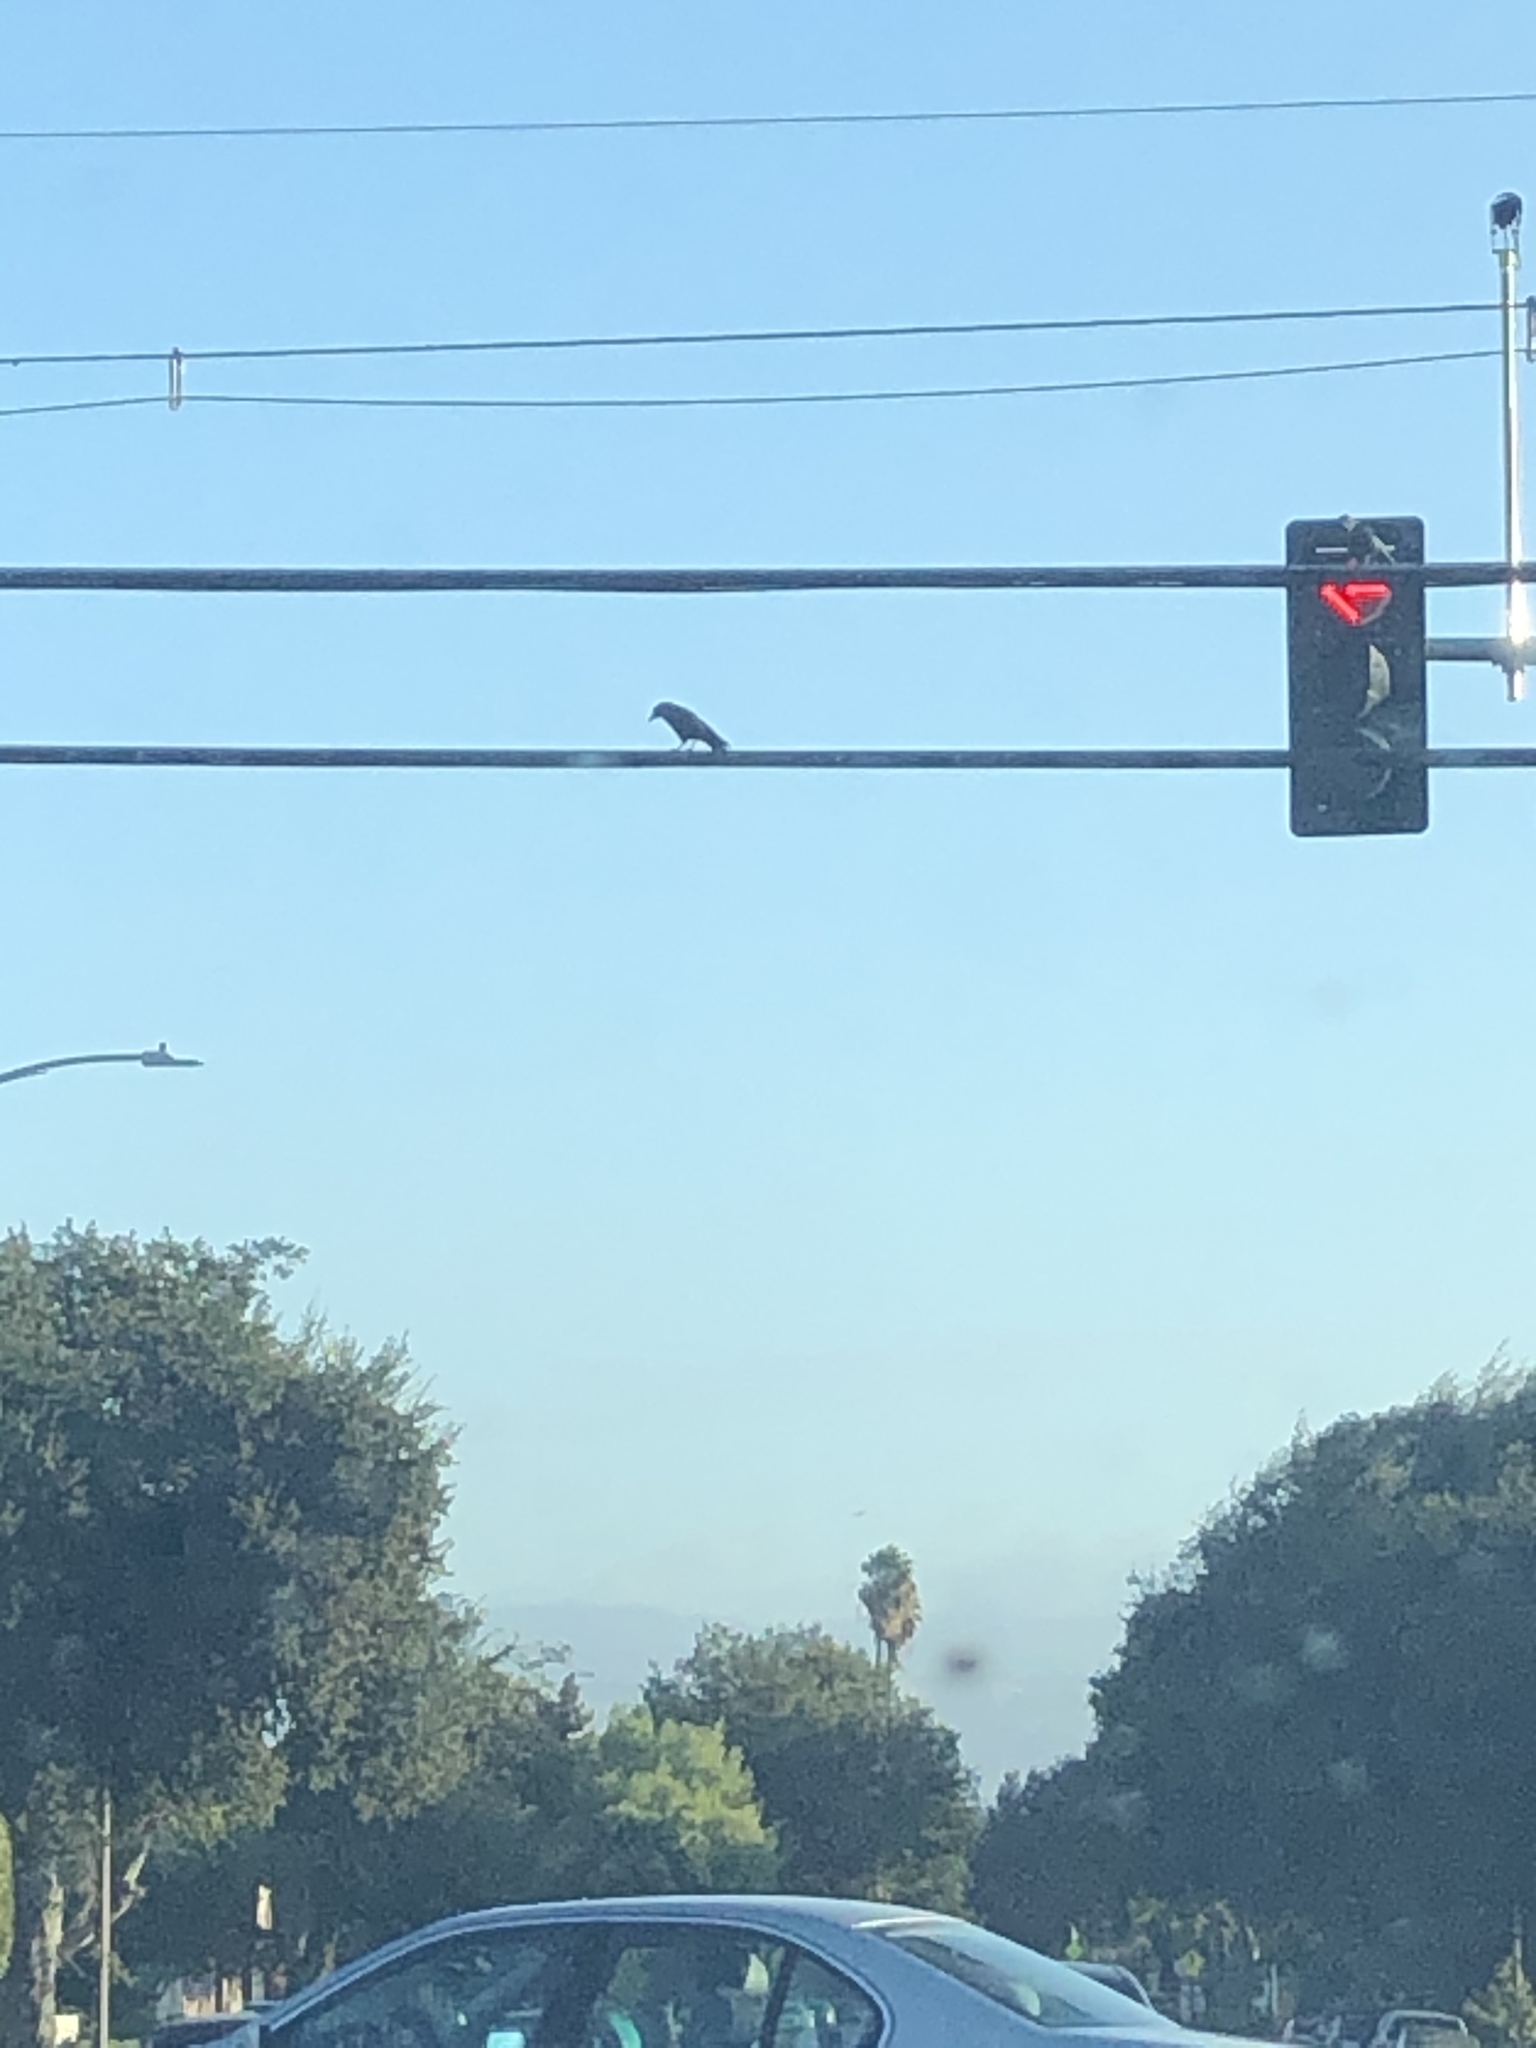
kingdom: Animalia
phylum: Chordata
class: Aves
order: Passeriformes
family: Corvidae
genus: Corvus
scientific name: Corvus brachyrhynchos
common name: American crow
